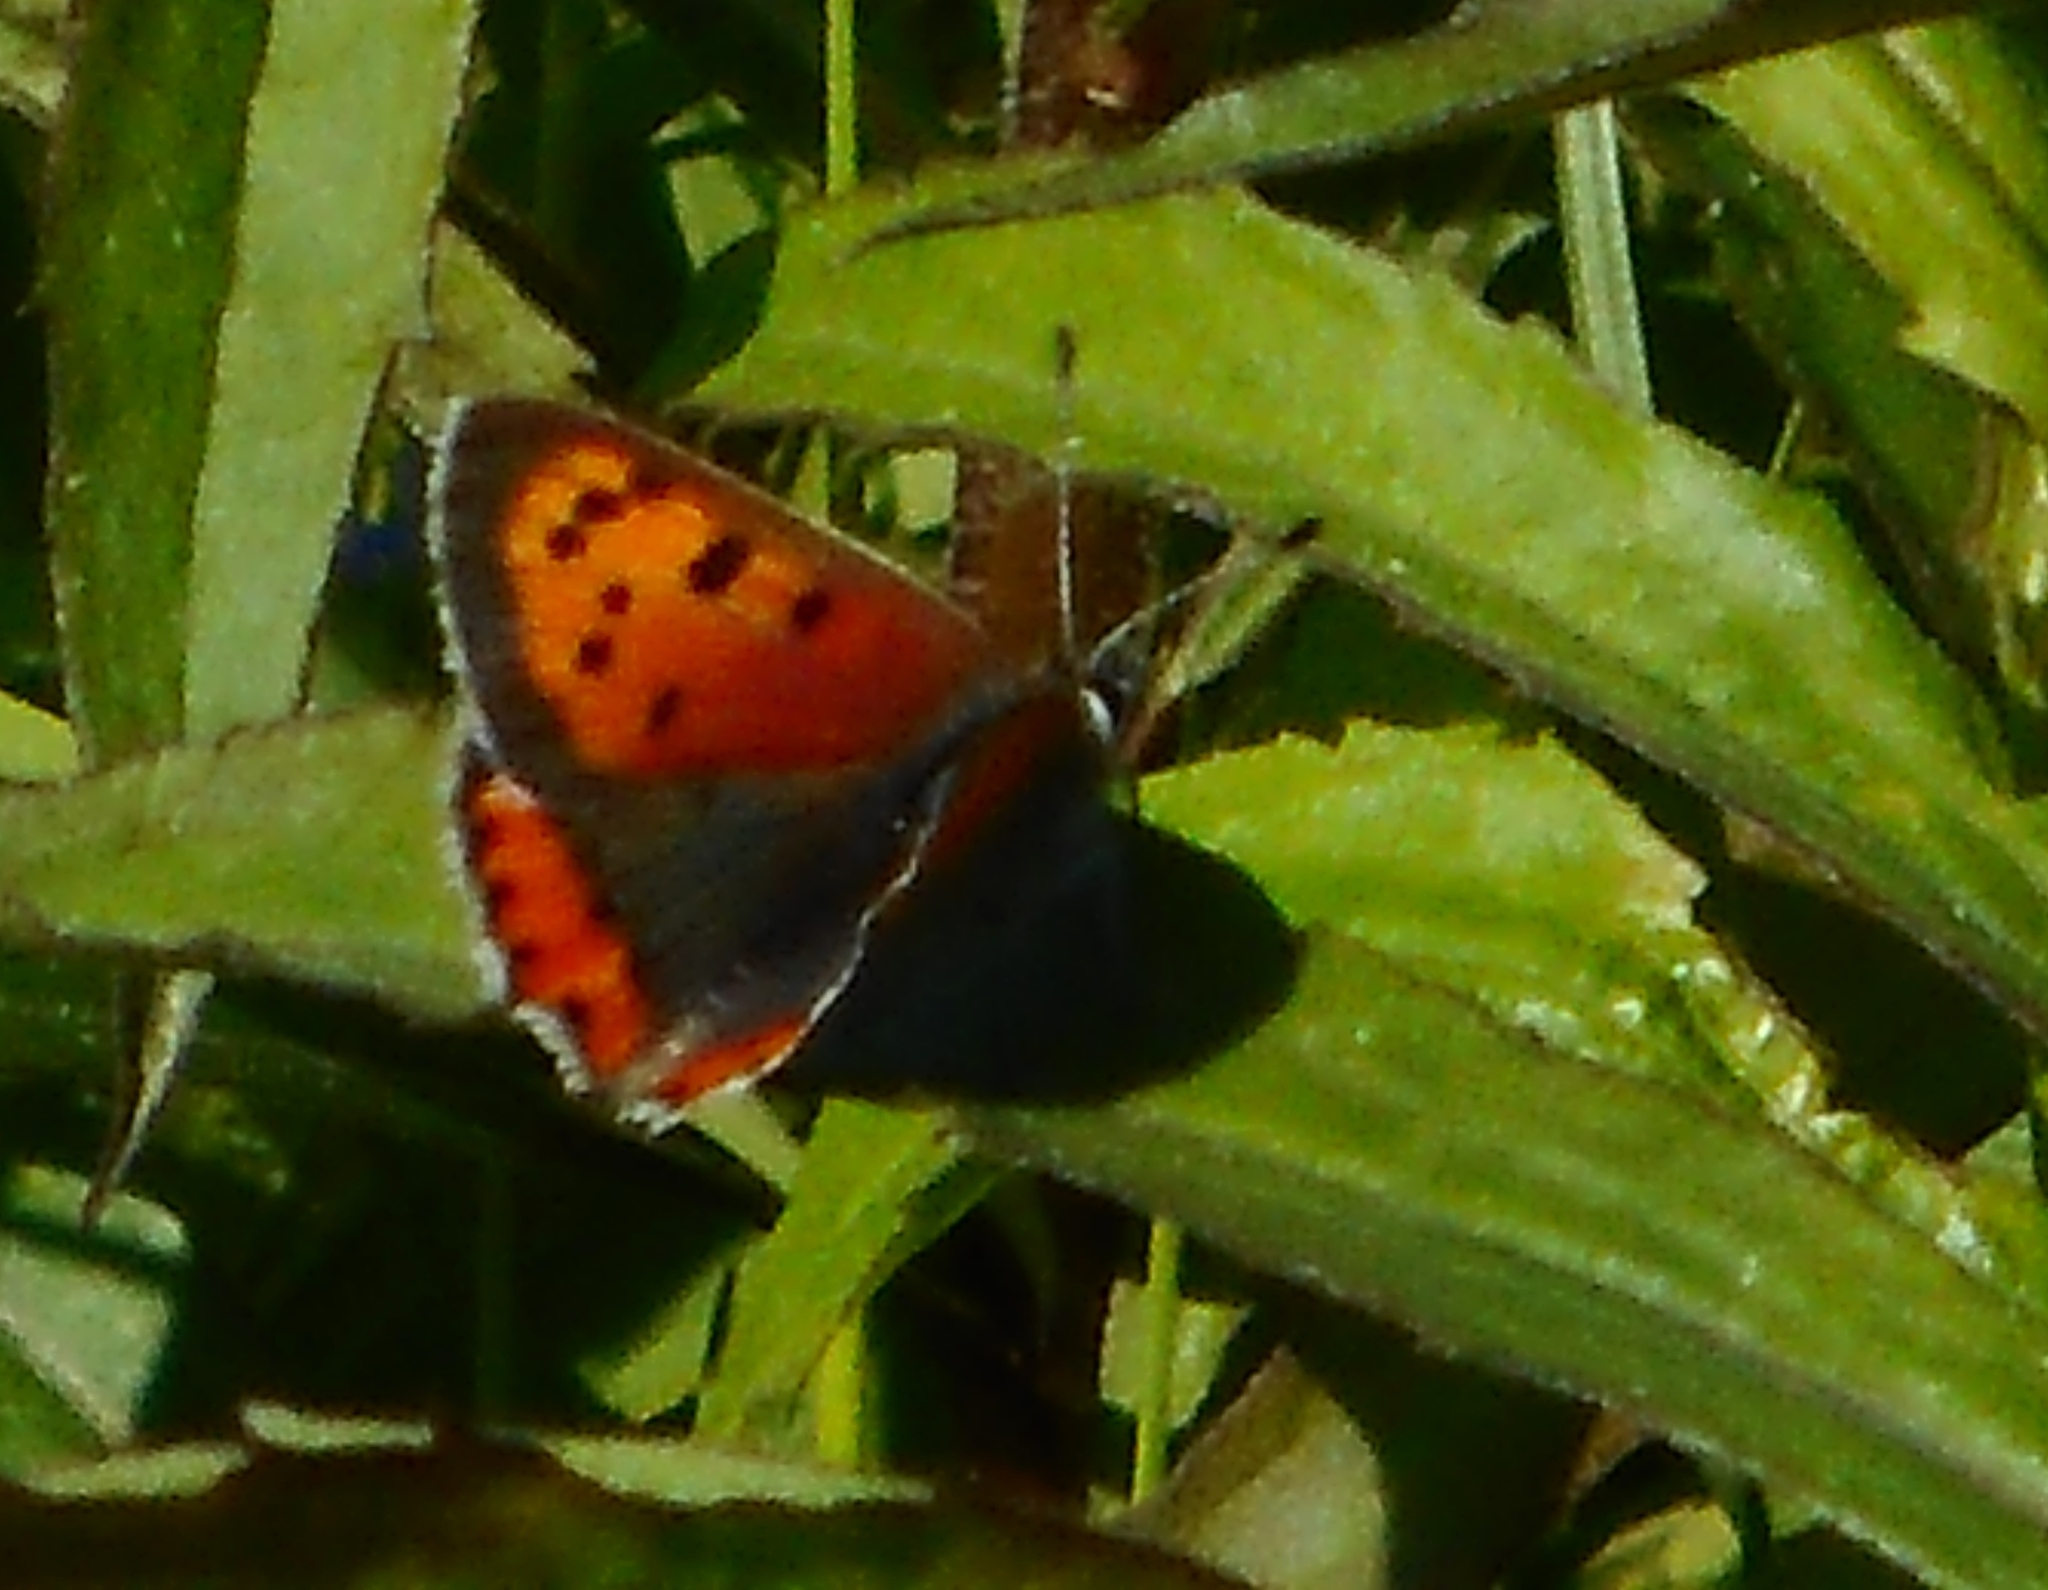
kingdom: Animalia
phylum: Arthropoda
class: Insecta
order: Lepidoptera
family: Lycaenidae
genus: Lycaena
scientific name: Lycaena phlaeas
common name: Small copper
